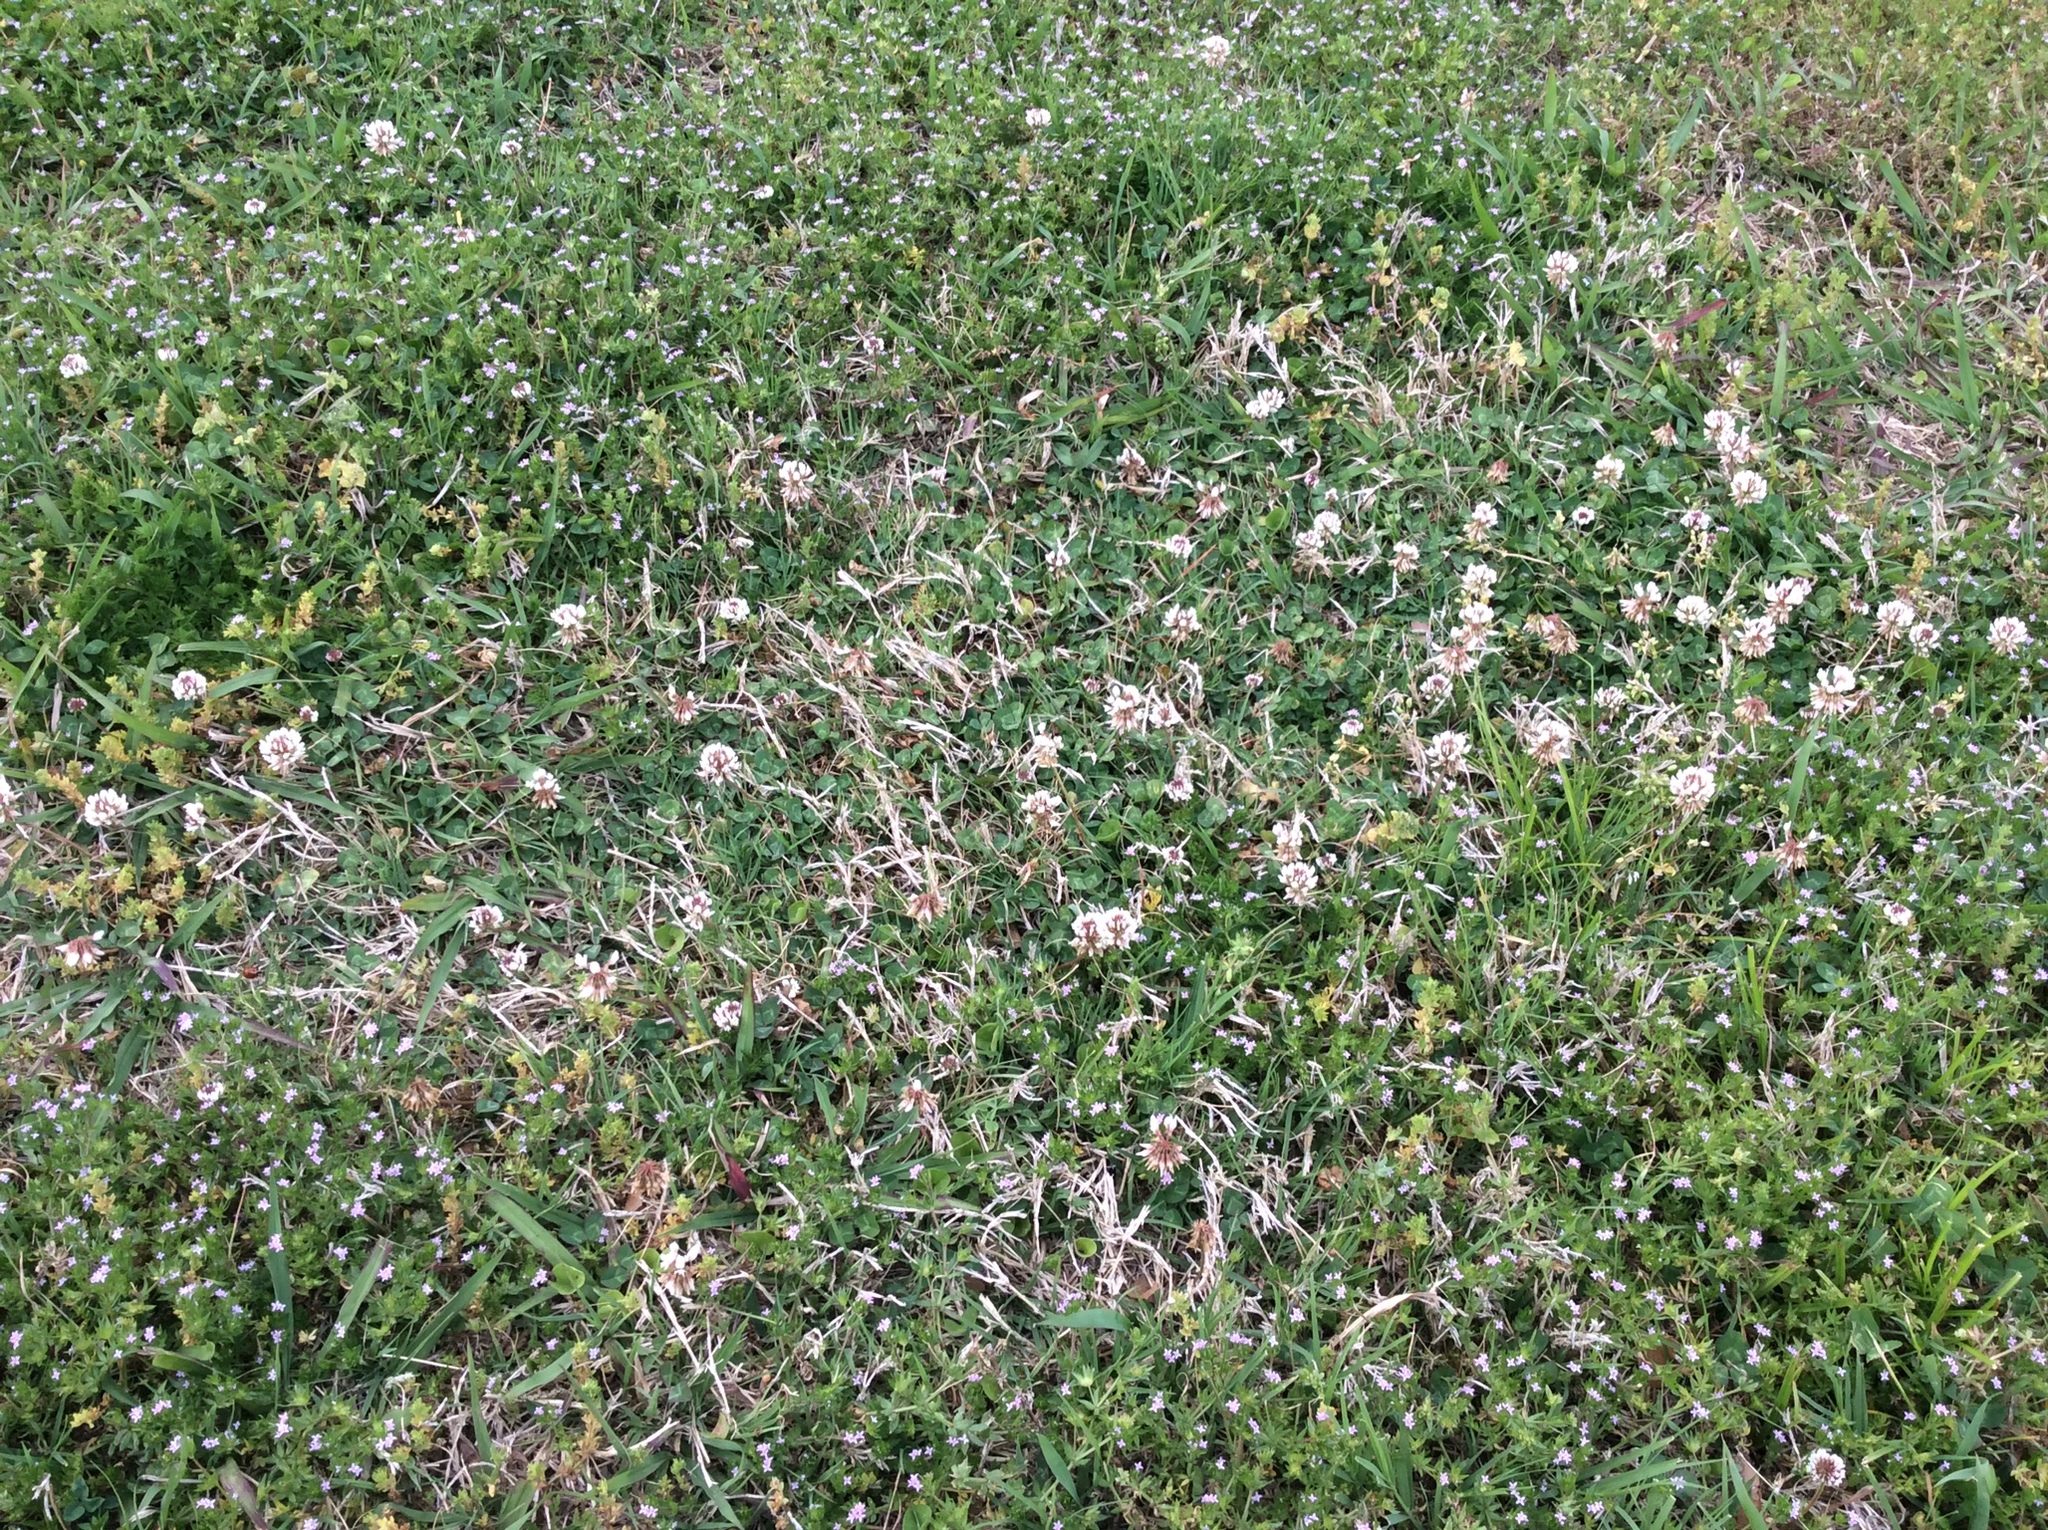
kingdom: Plantae
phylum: Tracheophyta
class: Magnoliopsida
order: Fabales
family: Fabaceae
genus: Trifolium
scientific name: Trifolium repens
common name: White clover
